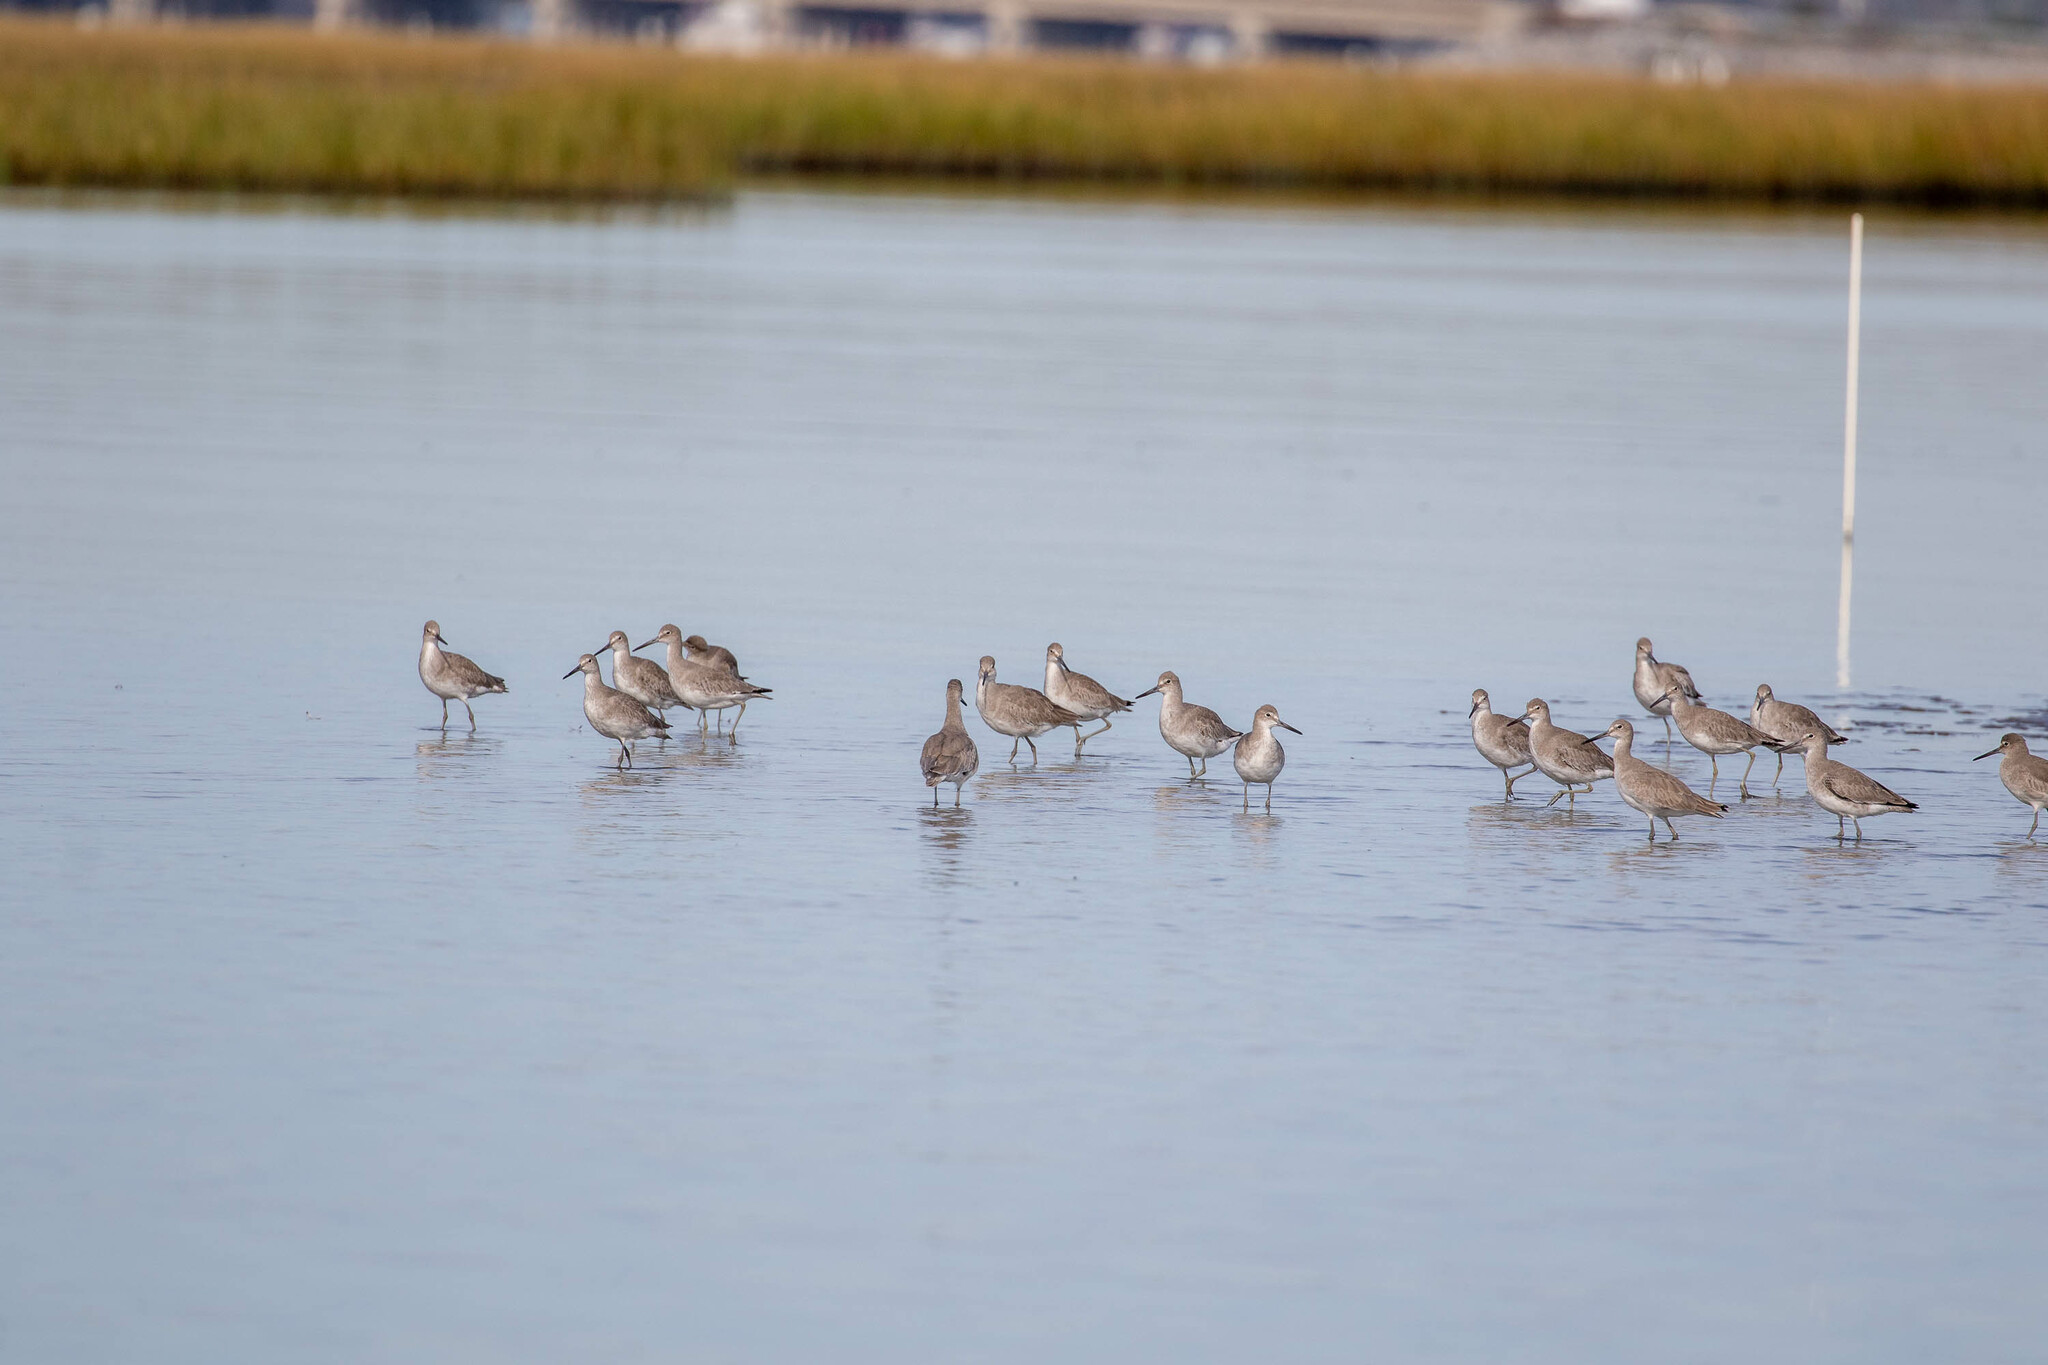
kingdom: Animalia
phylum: Chordata
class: Aves
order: Charadriiformes
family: Scolopacidae
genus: Tringa
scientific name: Tringa semipalmata
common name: Willet
